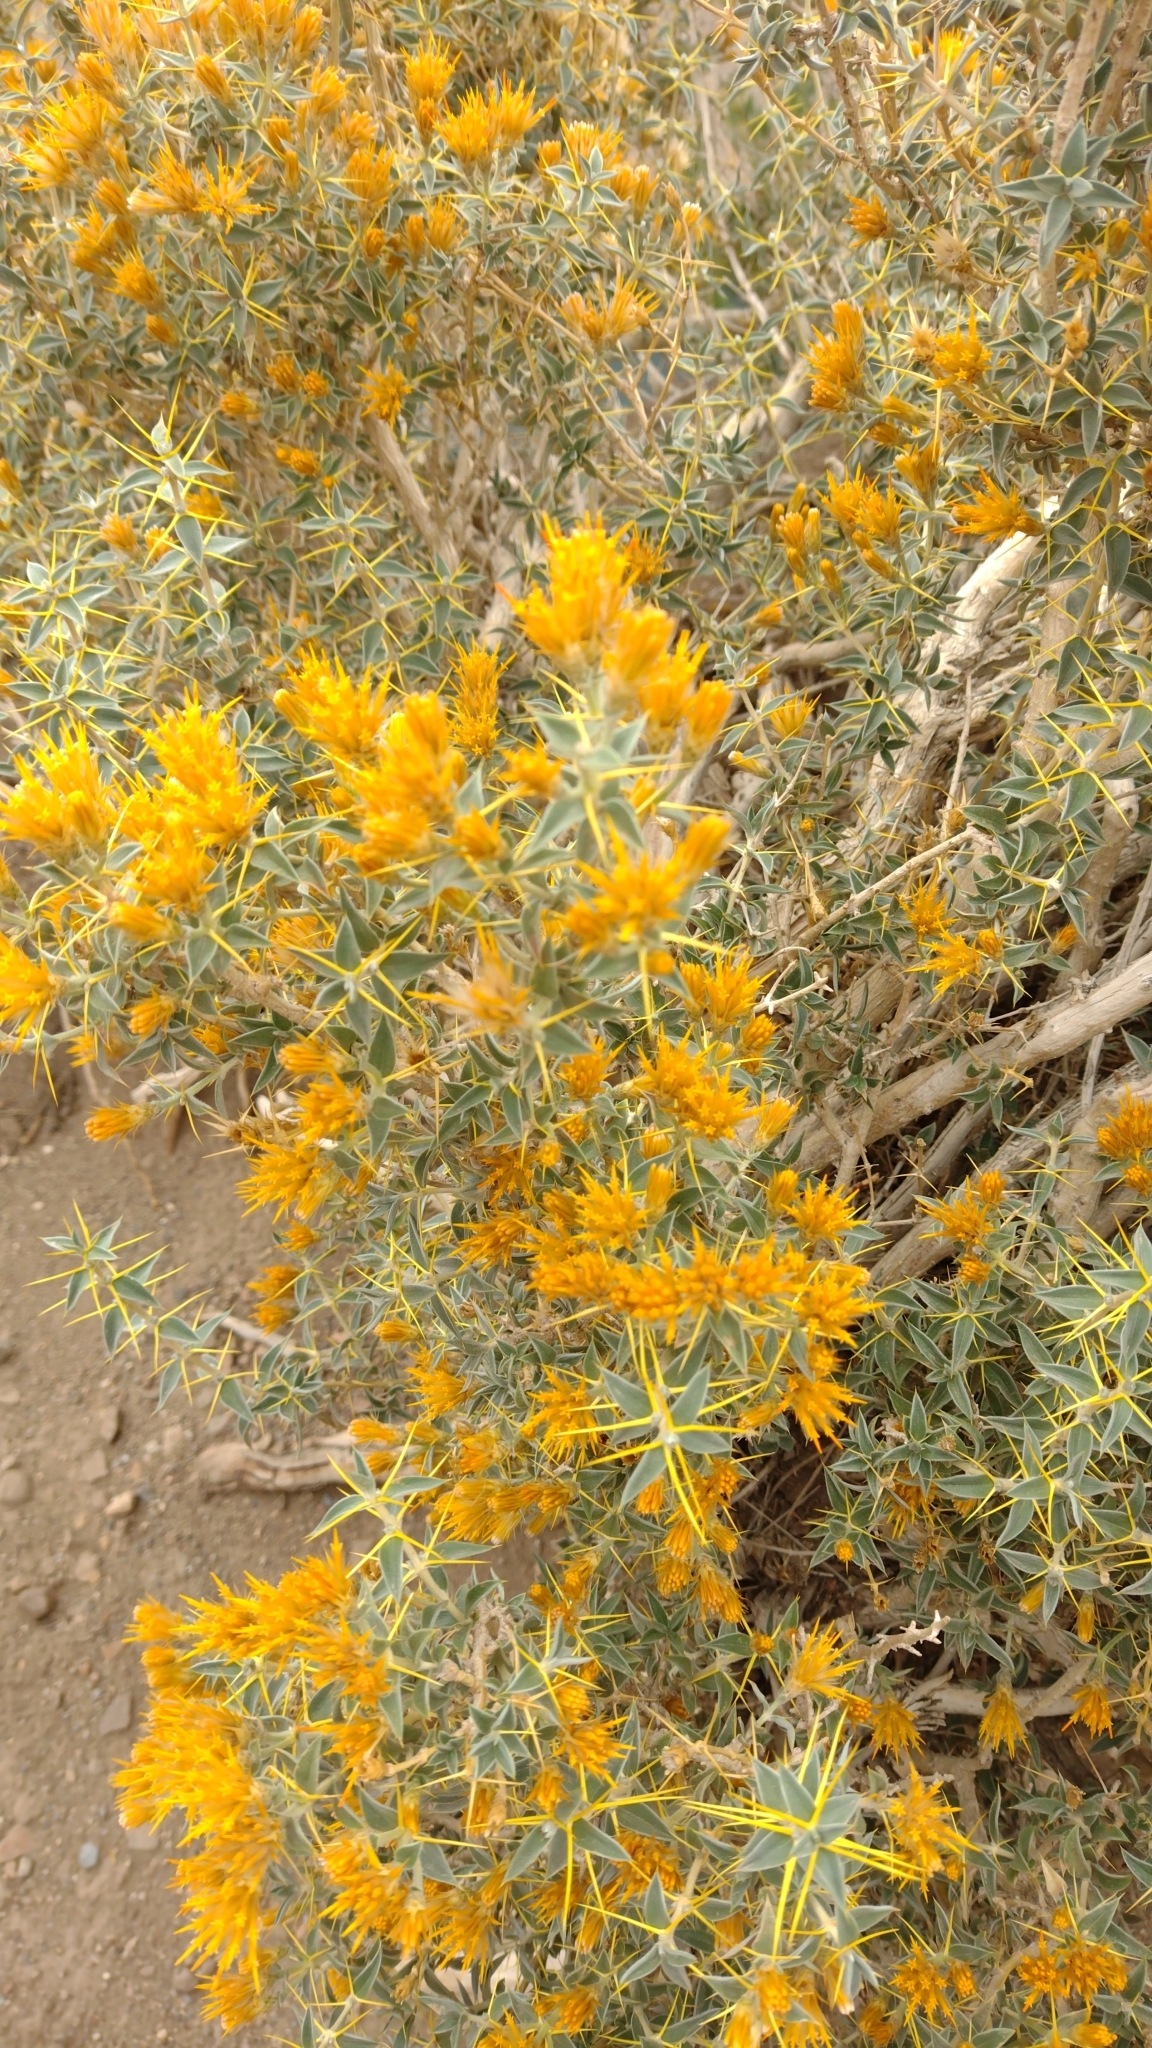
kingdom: Plantae
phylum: Tracheophyta
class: Magnoliopsida
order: Asterales
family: Asteraceae
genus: Chuquiraga
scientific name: Chuquiraga oppositifolia
